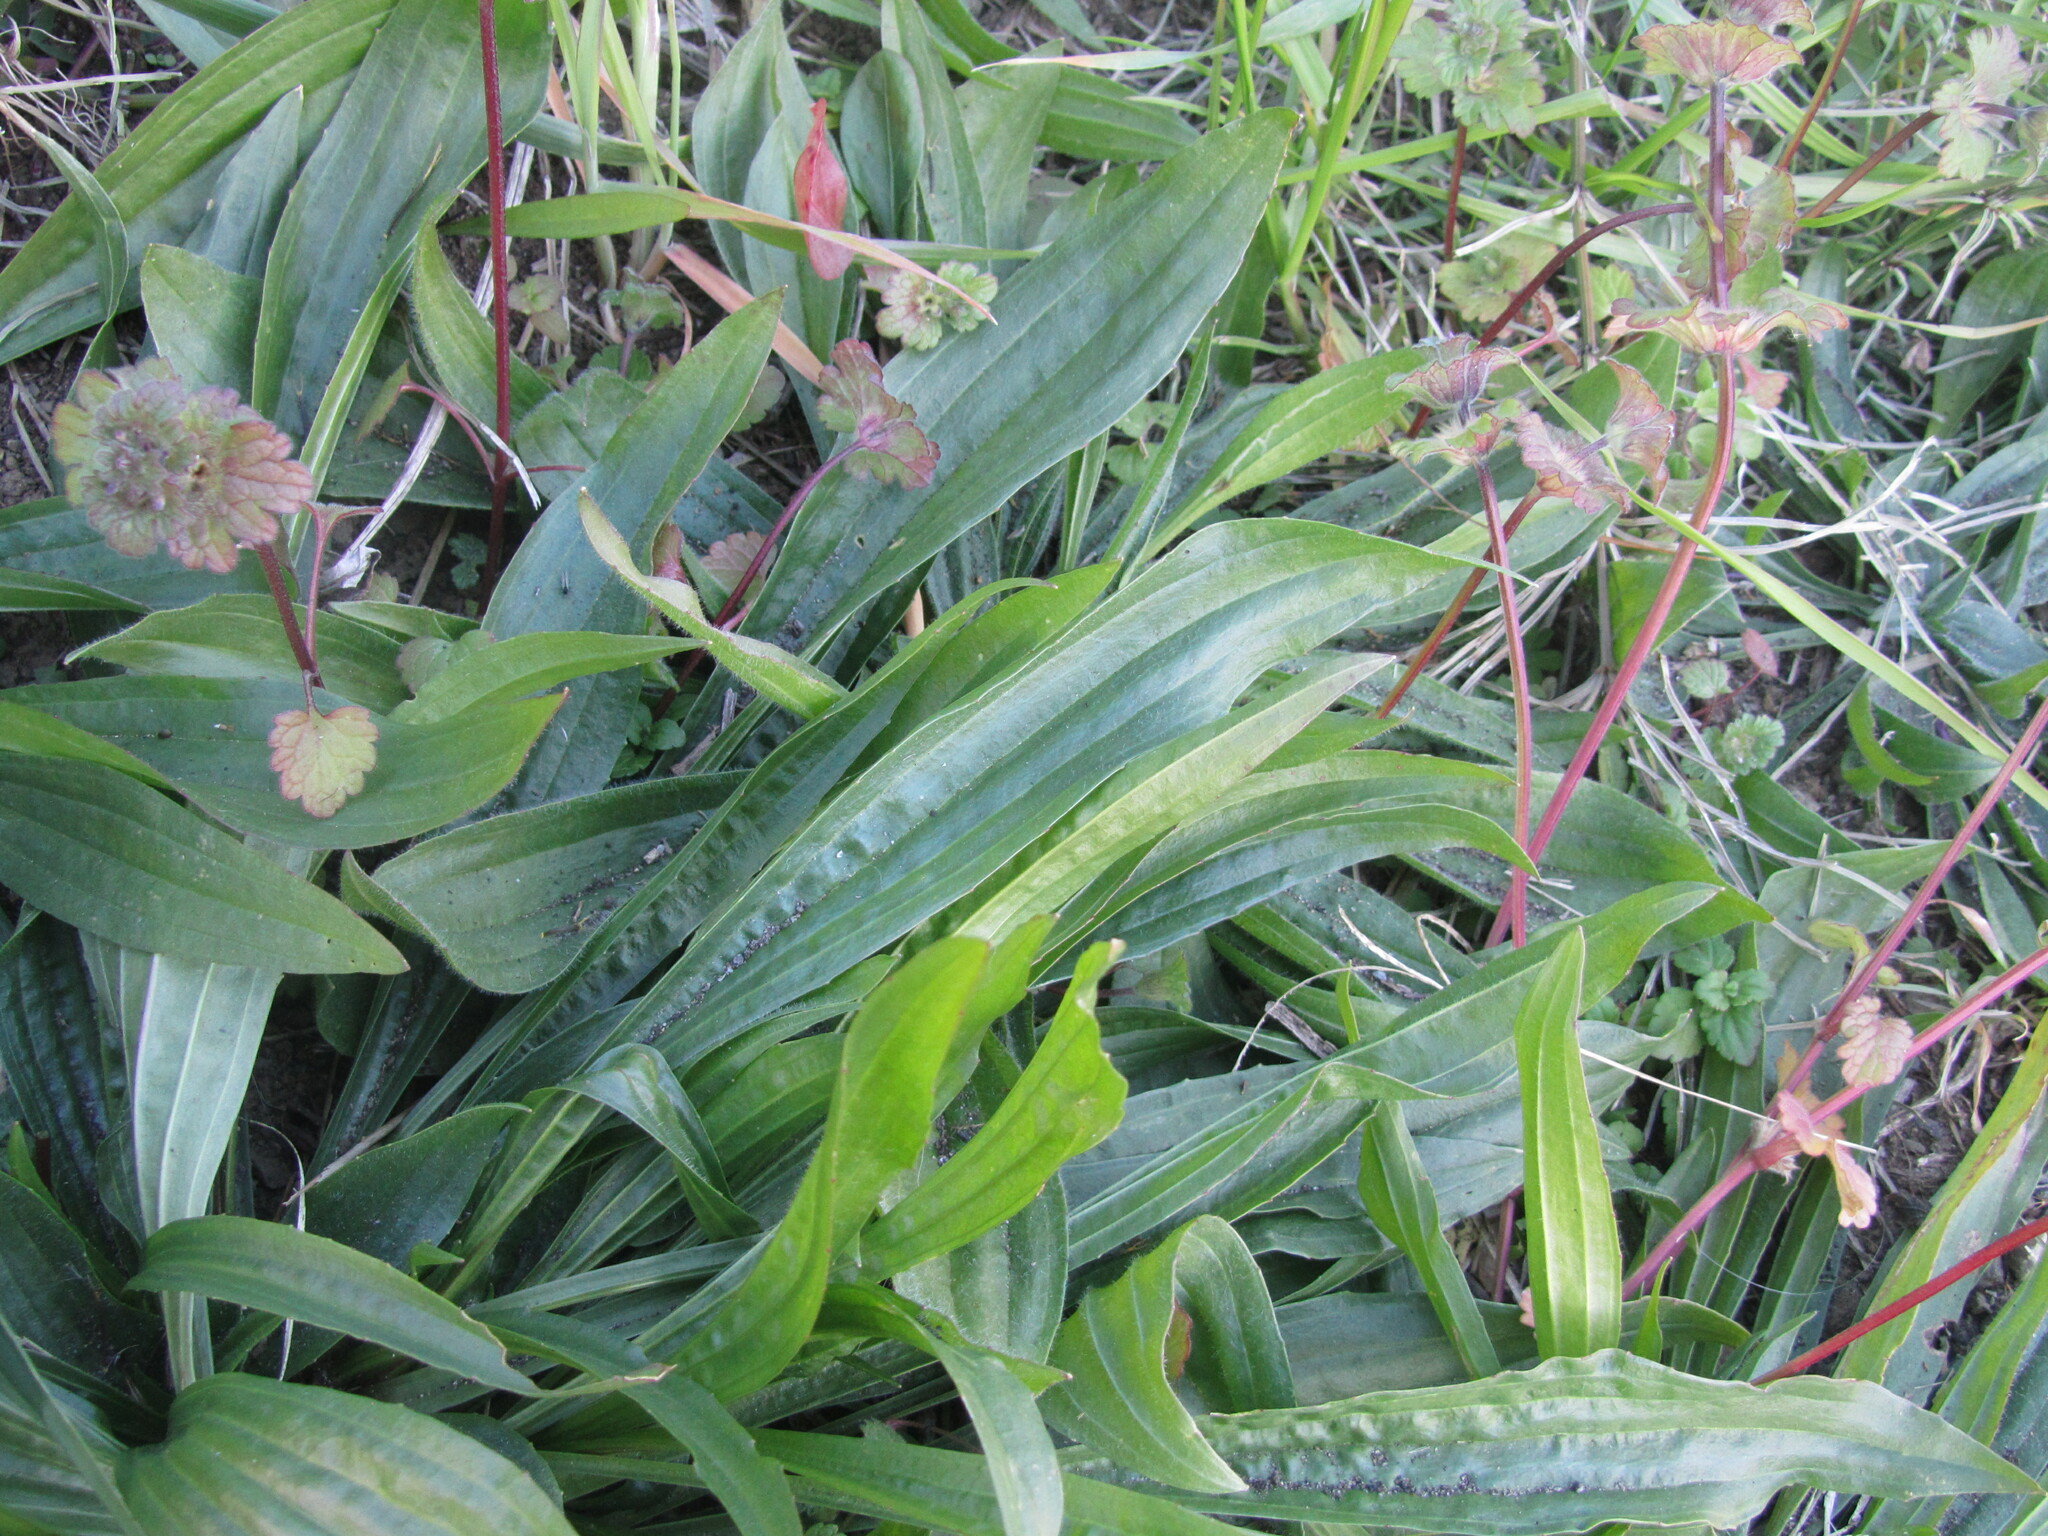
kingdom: Plantae
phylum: Tracheophyta
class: Magnoliopsida
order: Lamiales
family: Plantaginaceae
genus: Plantago
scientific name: Plantago lanceolata
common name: Ribwort plantain
